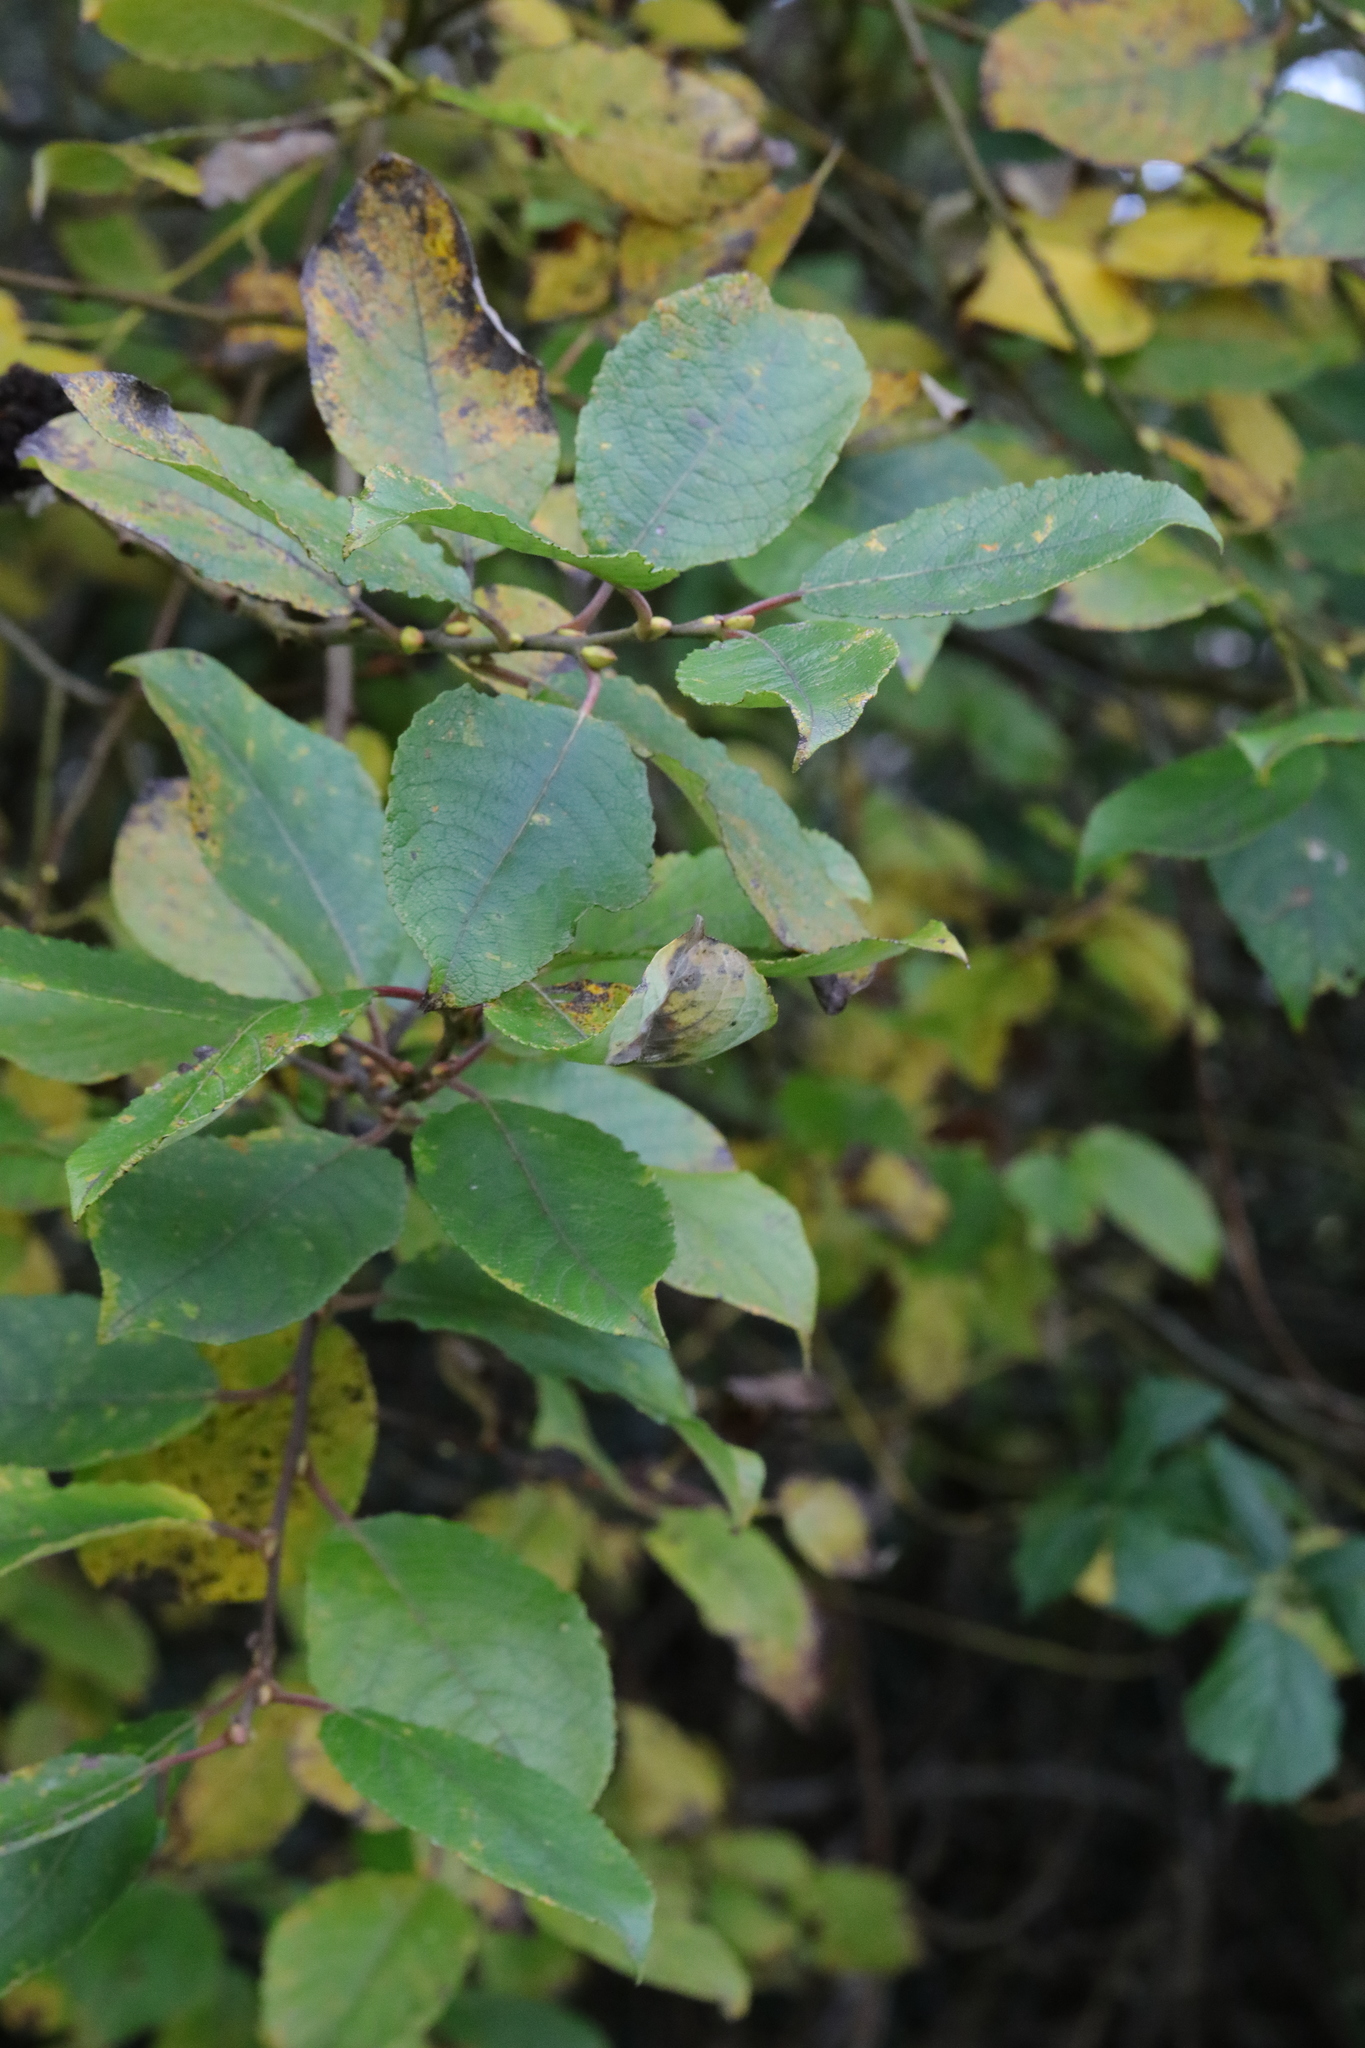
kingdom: Plantae
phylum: Tracheophyta
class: Magnoliopsida
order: Malpighiales
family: Salicaceae
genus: Salix
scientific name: Salix caprea
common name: Goat willow
